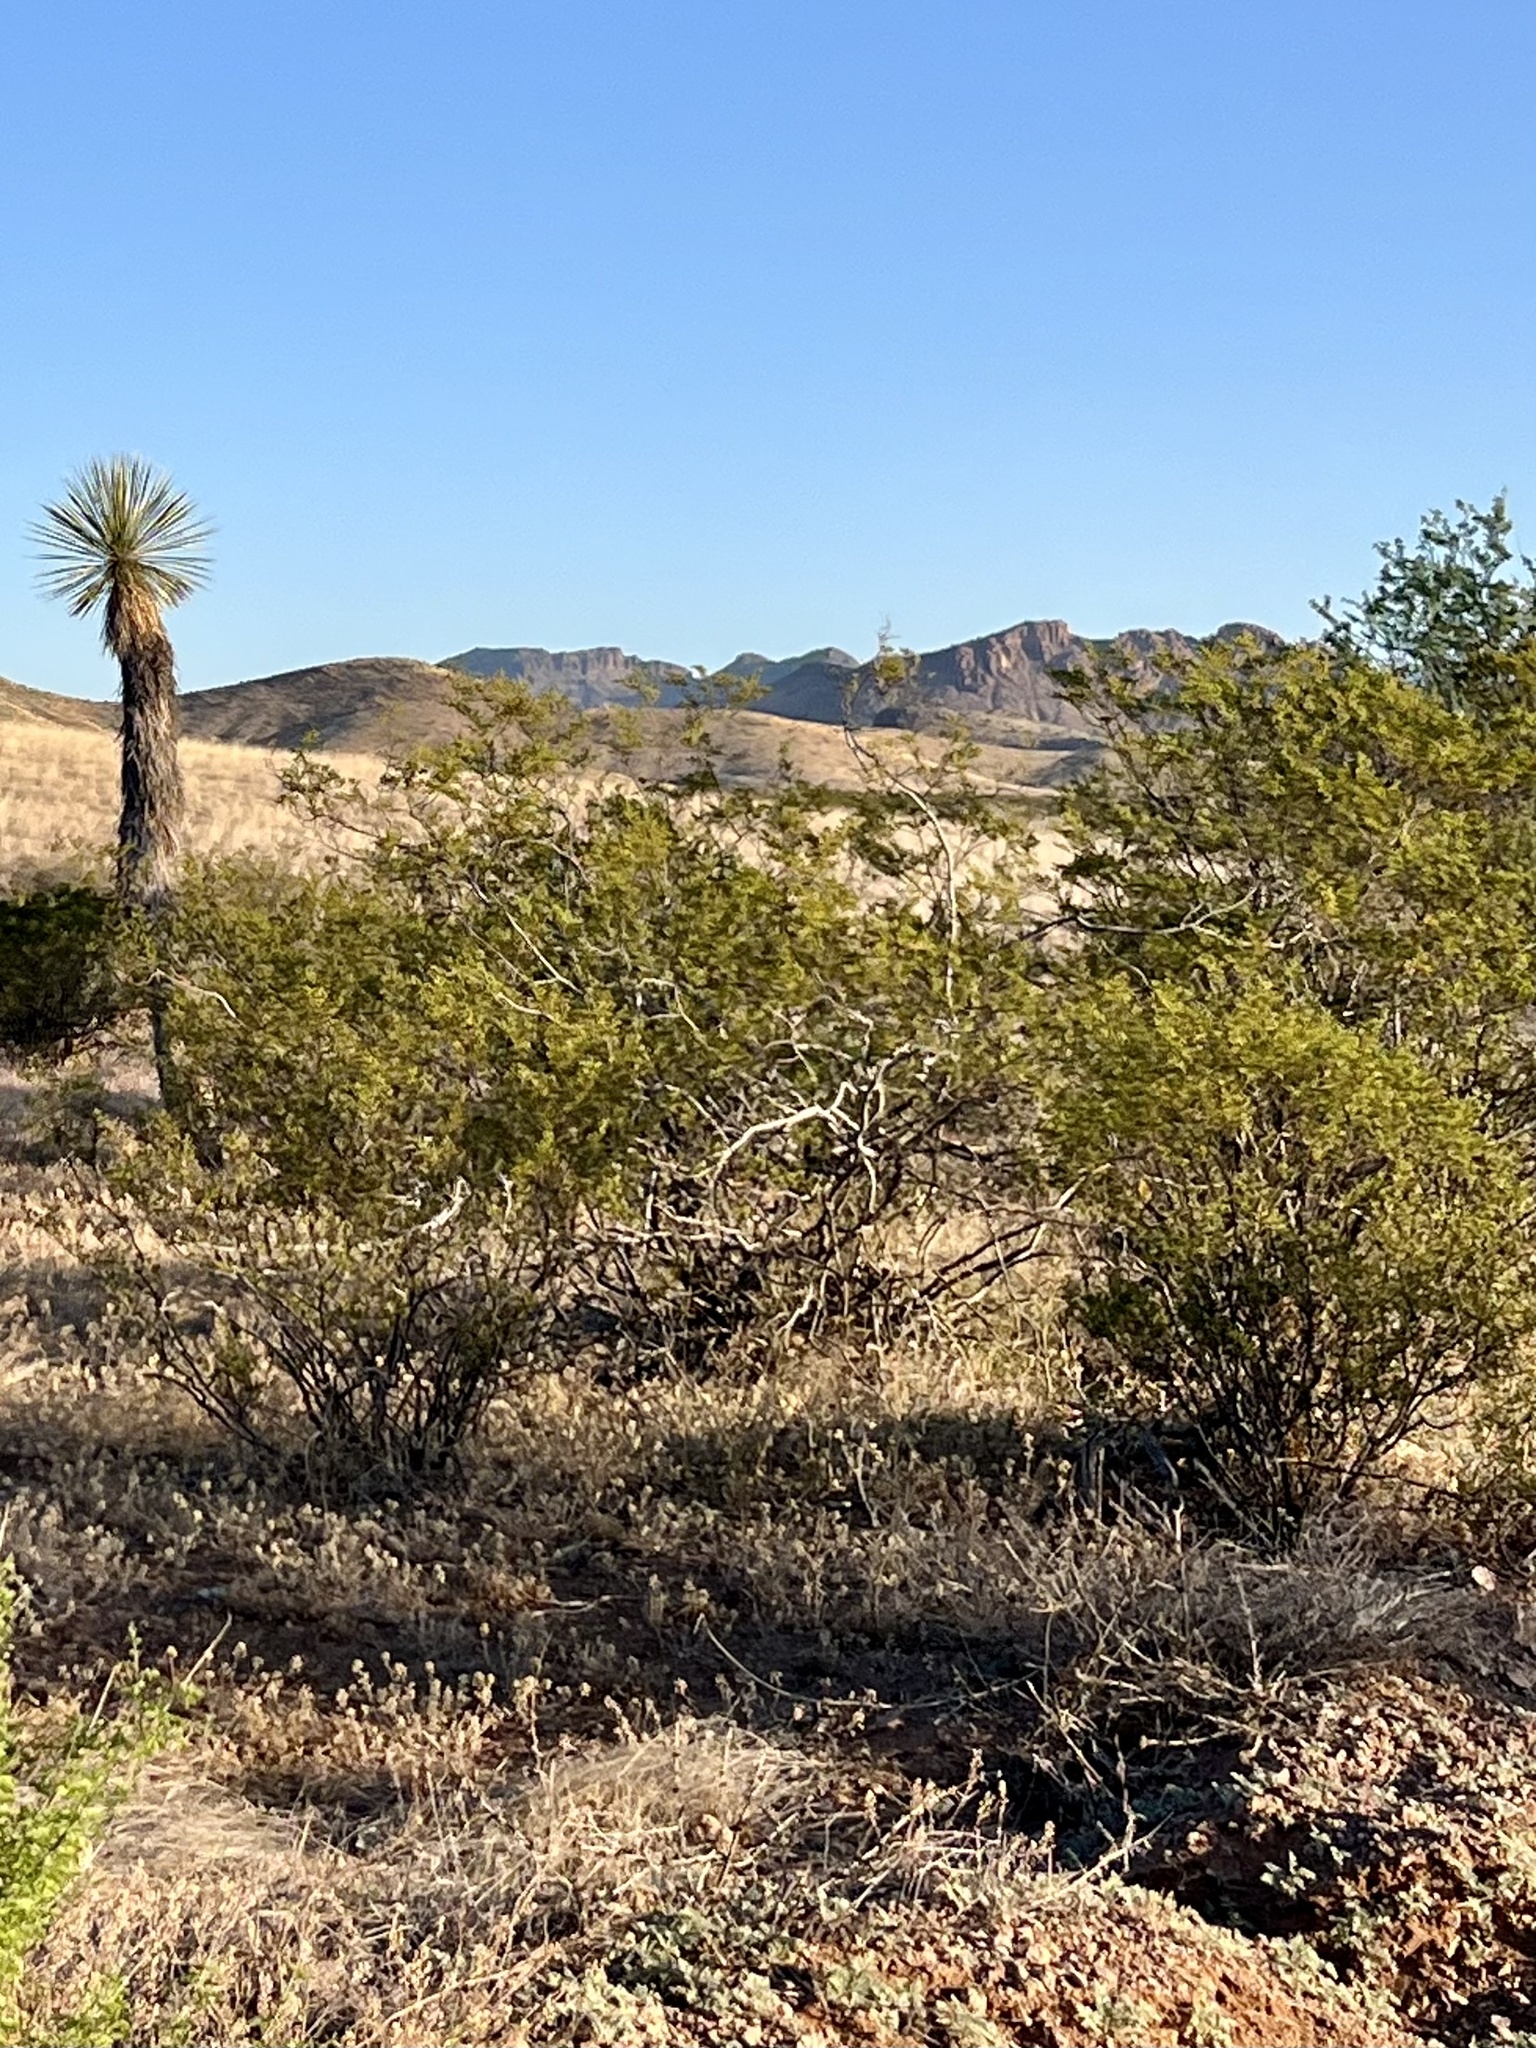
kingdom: Plantae
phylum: Tracheophyta
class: Magnoliopsida
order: Zygophyllales
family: Zygophyllaceae
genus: Larrea
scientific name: Larrea tridentata
